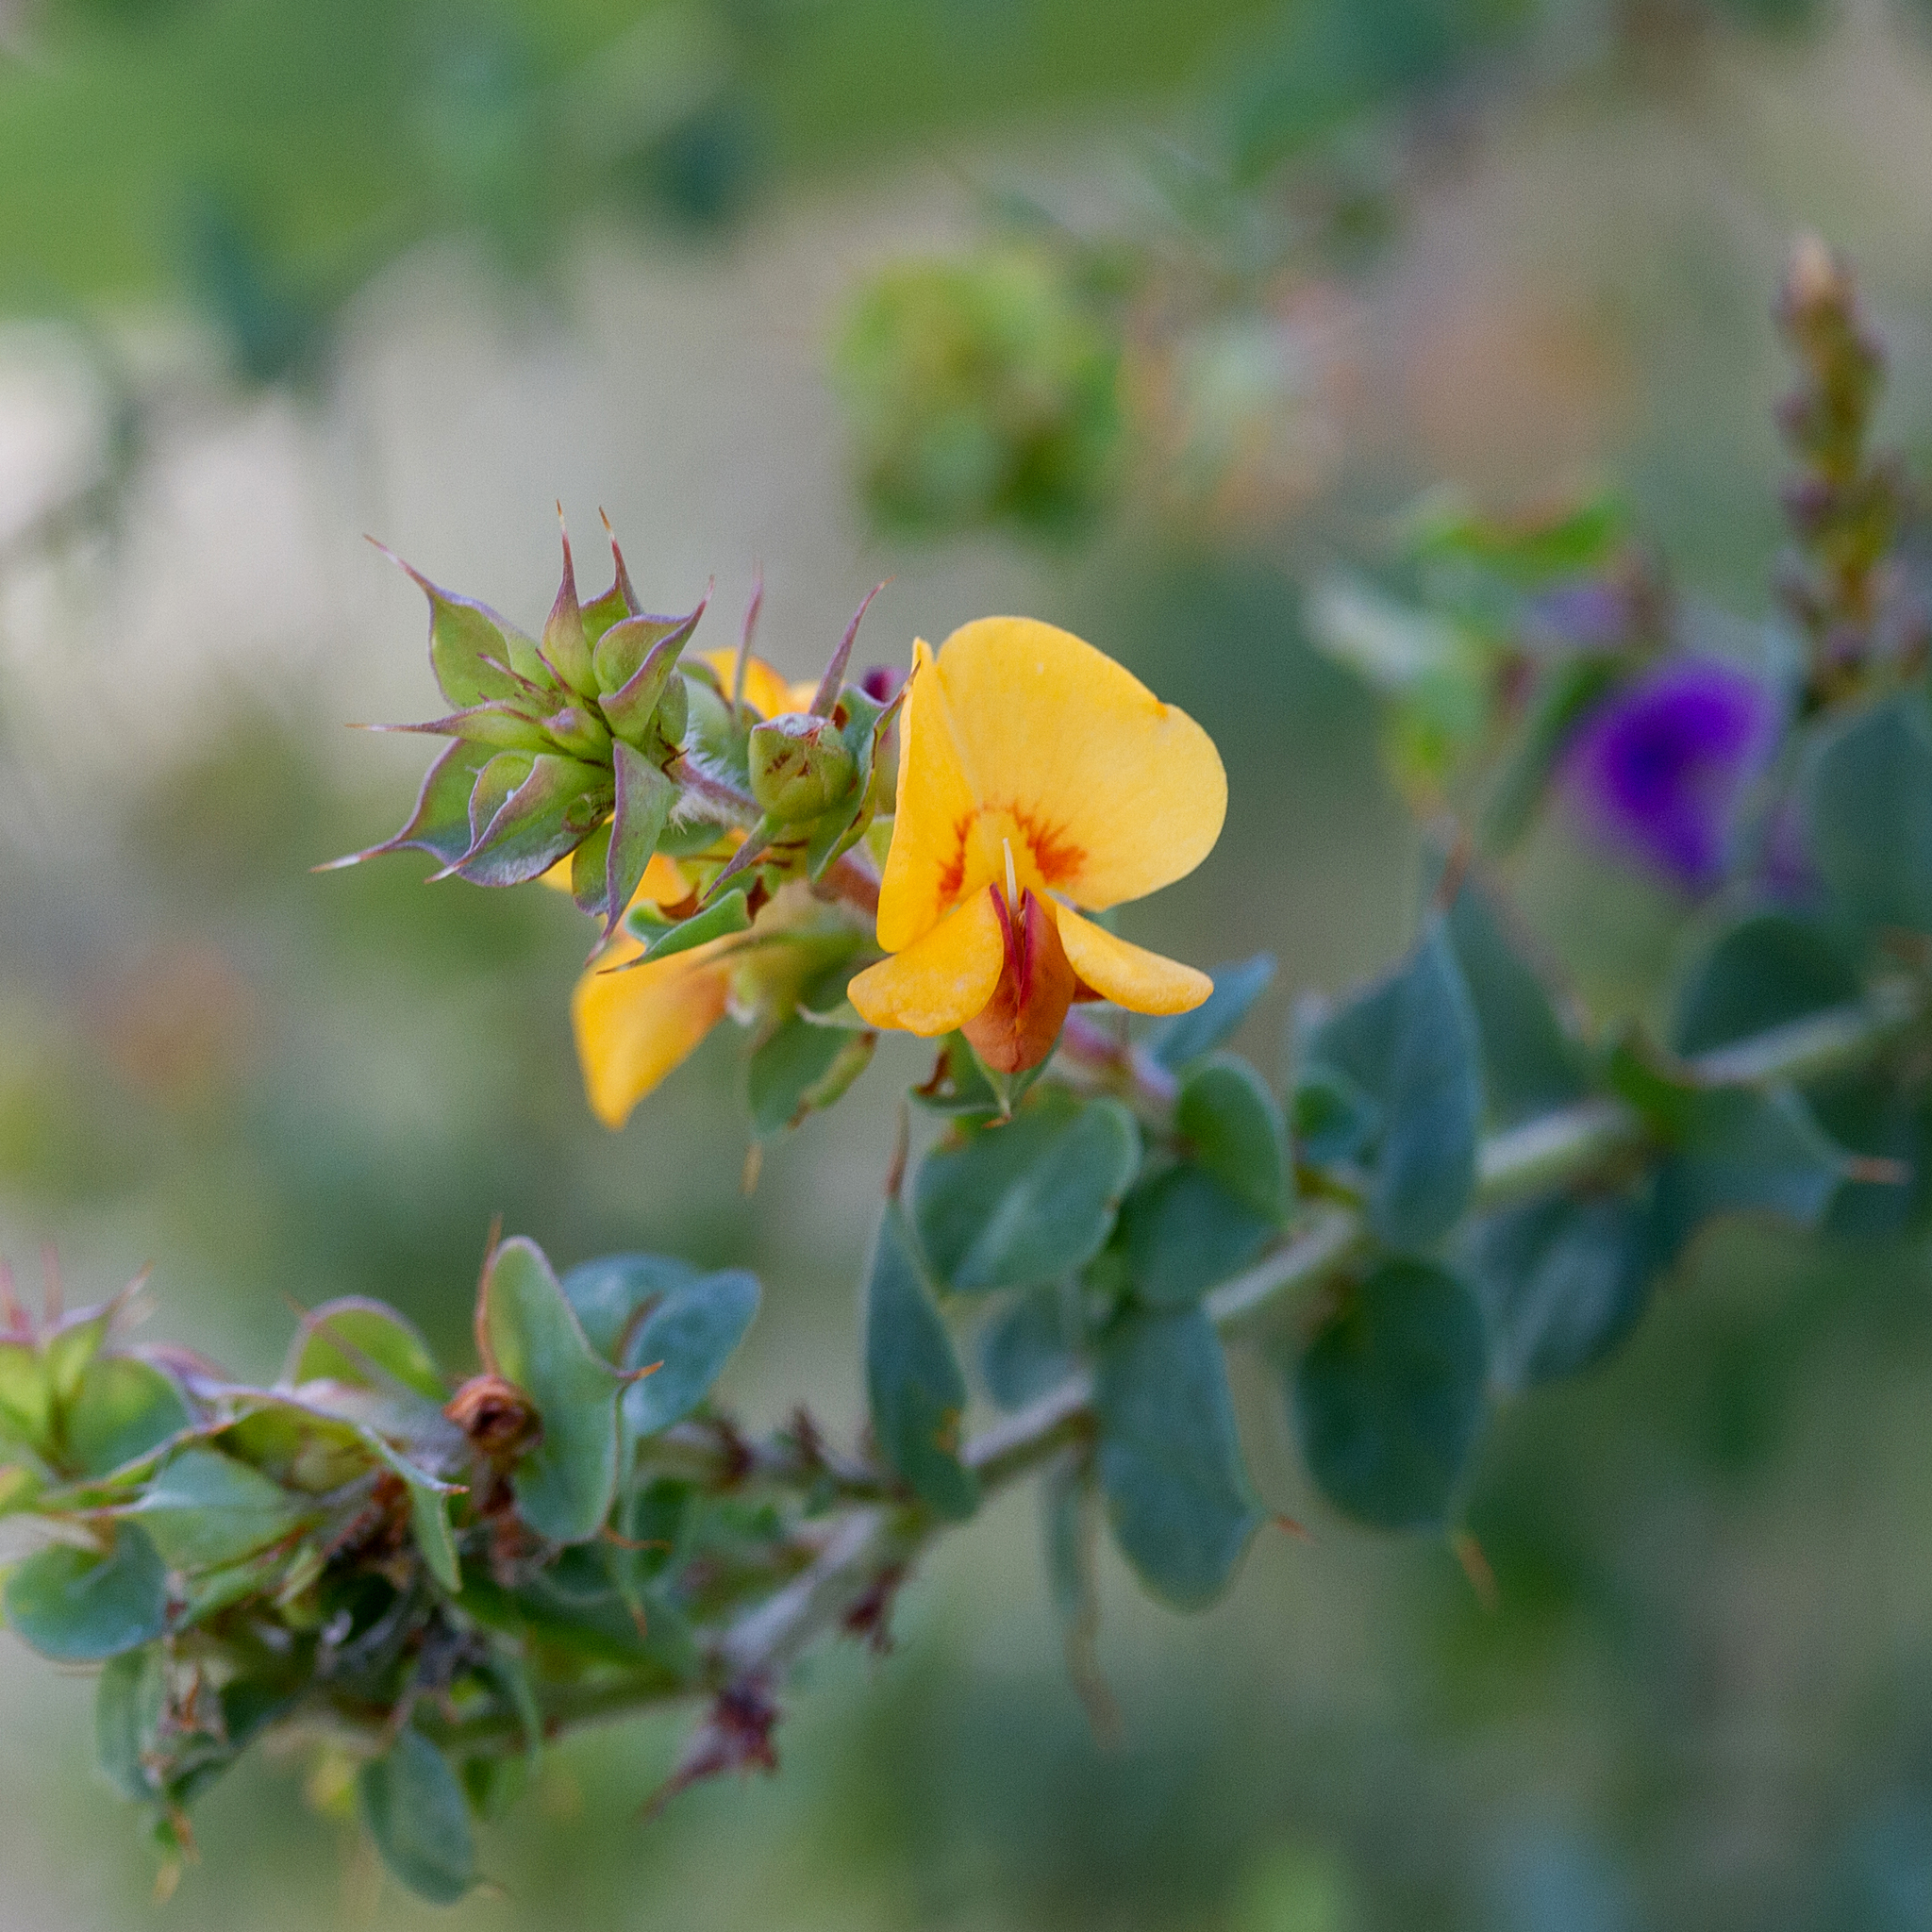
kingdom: Plantae
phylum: Tracheophyta
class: Magnoliopsida
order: Fabales
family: Fabaceae
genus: Pultenaea
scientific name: Pultenaea spinosa
